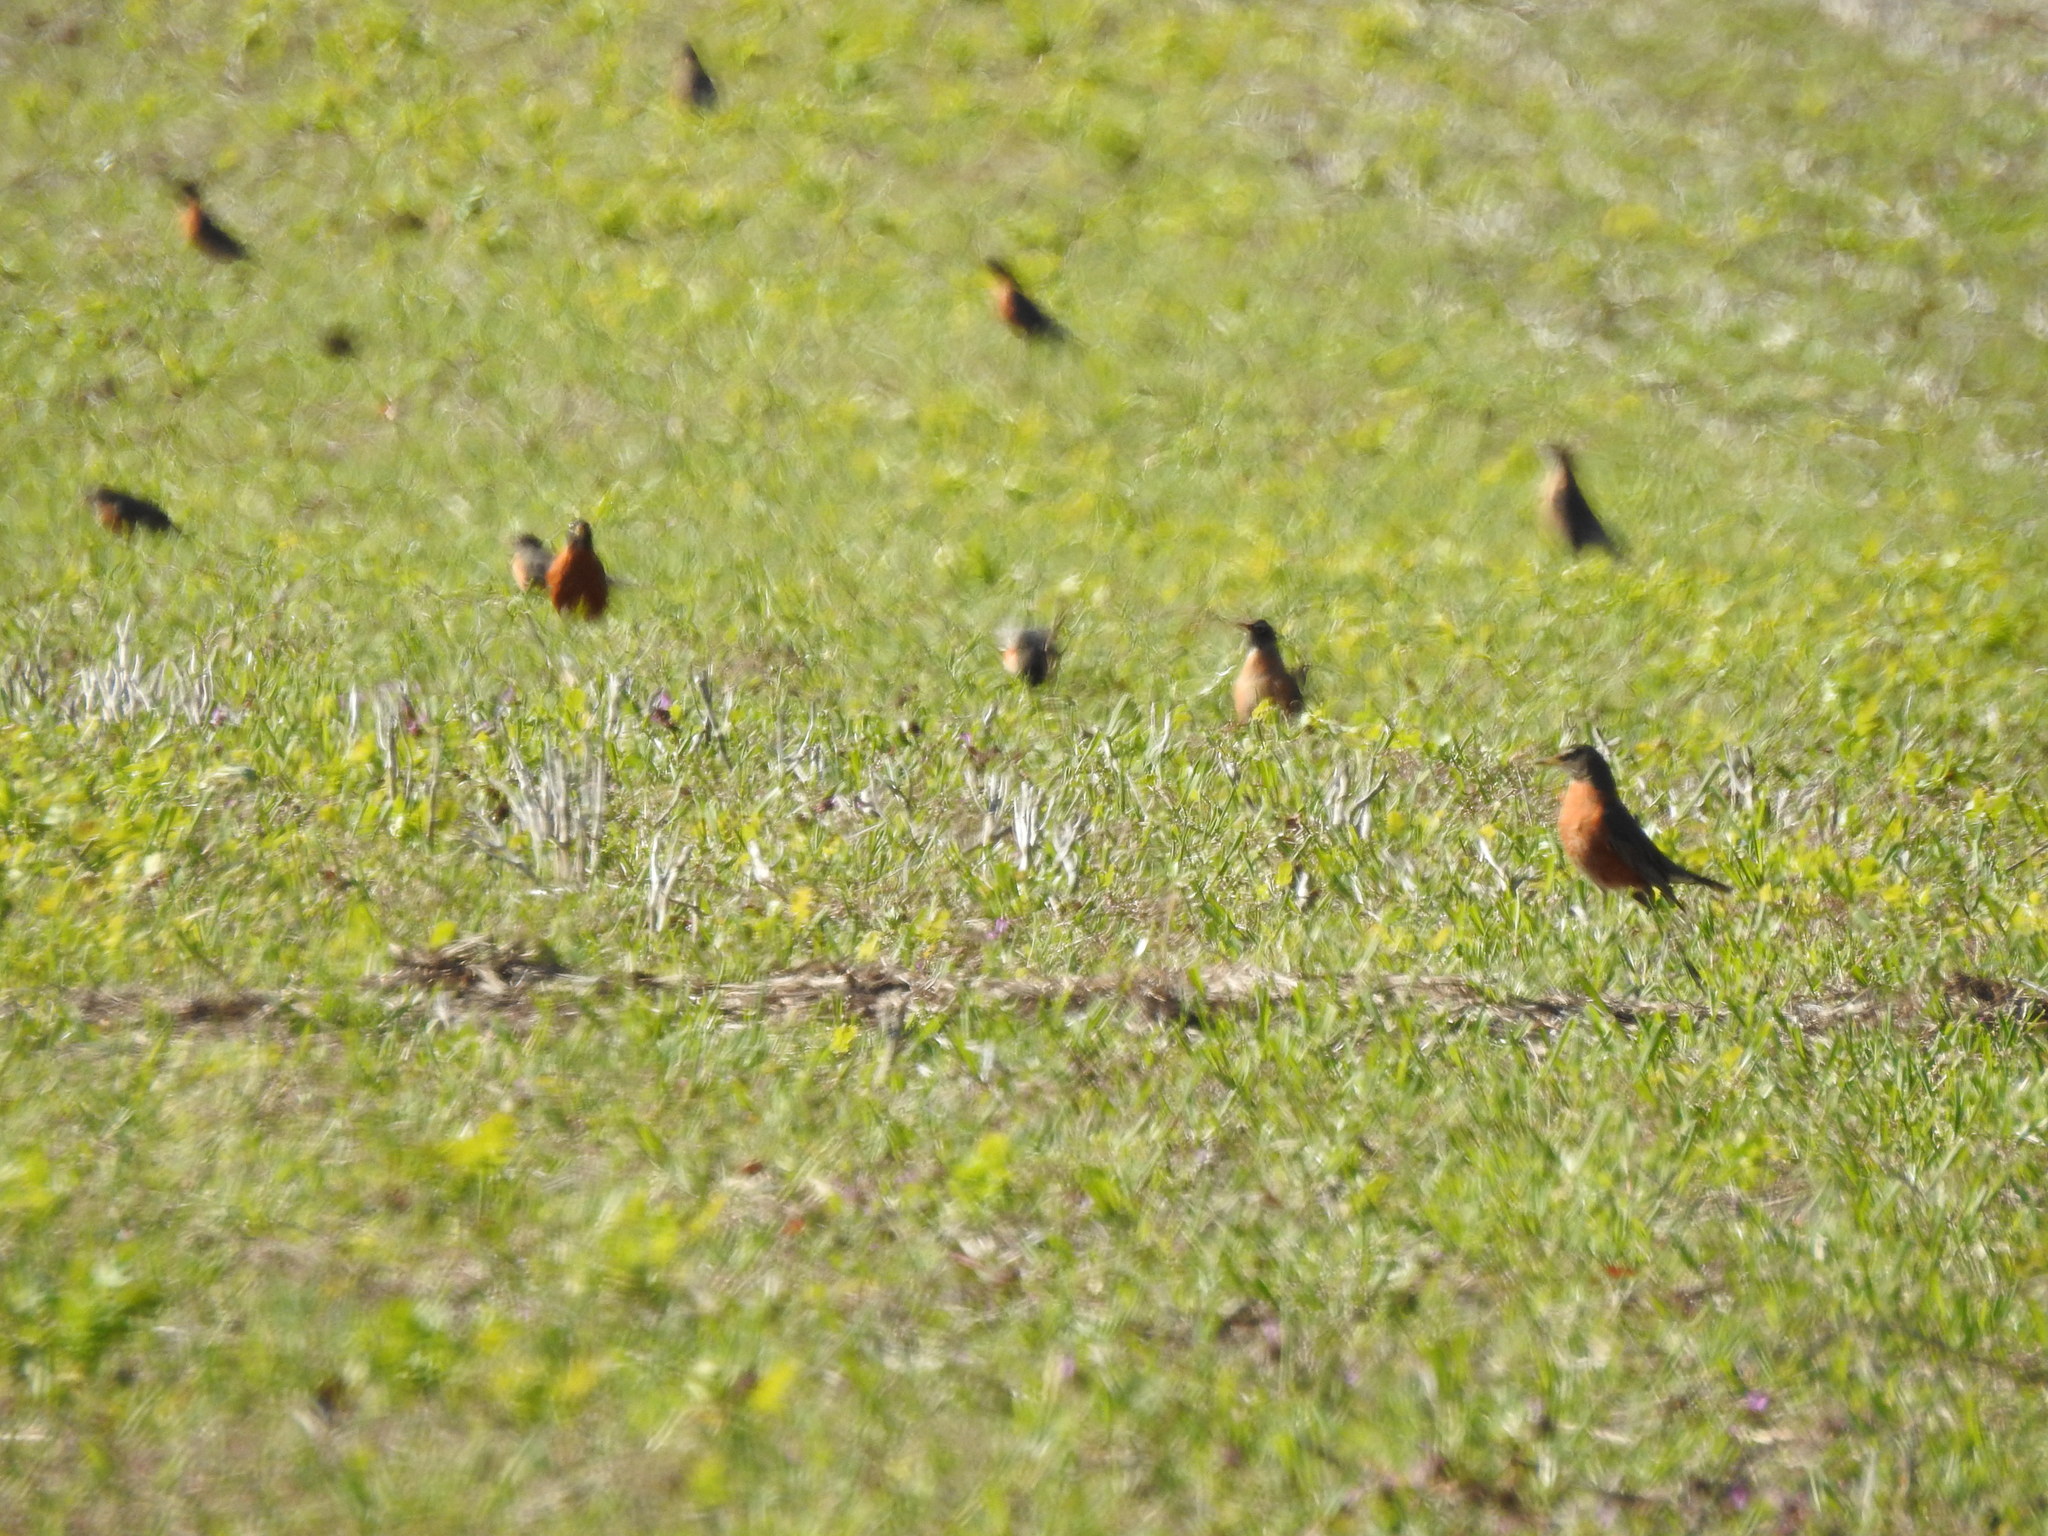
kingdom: Animalia
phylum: Chordata
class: Aves
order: Passeriformes
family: Turdidae
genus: Turdus
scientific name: Turdus migratorius
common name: American robin
